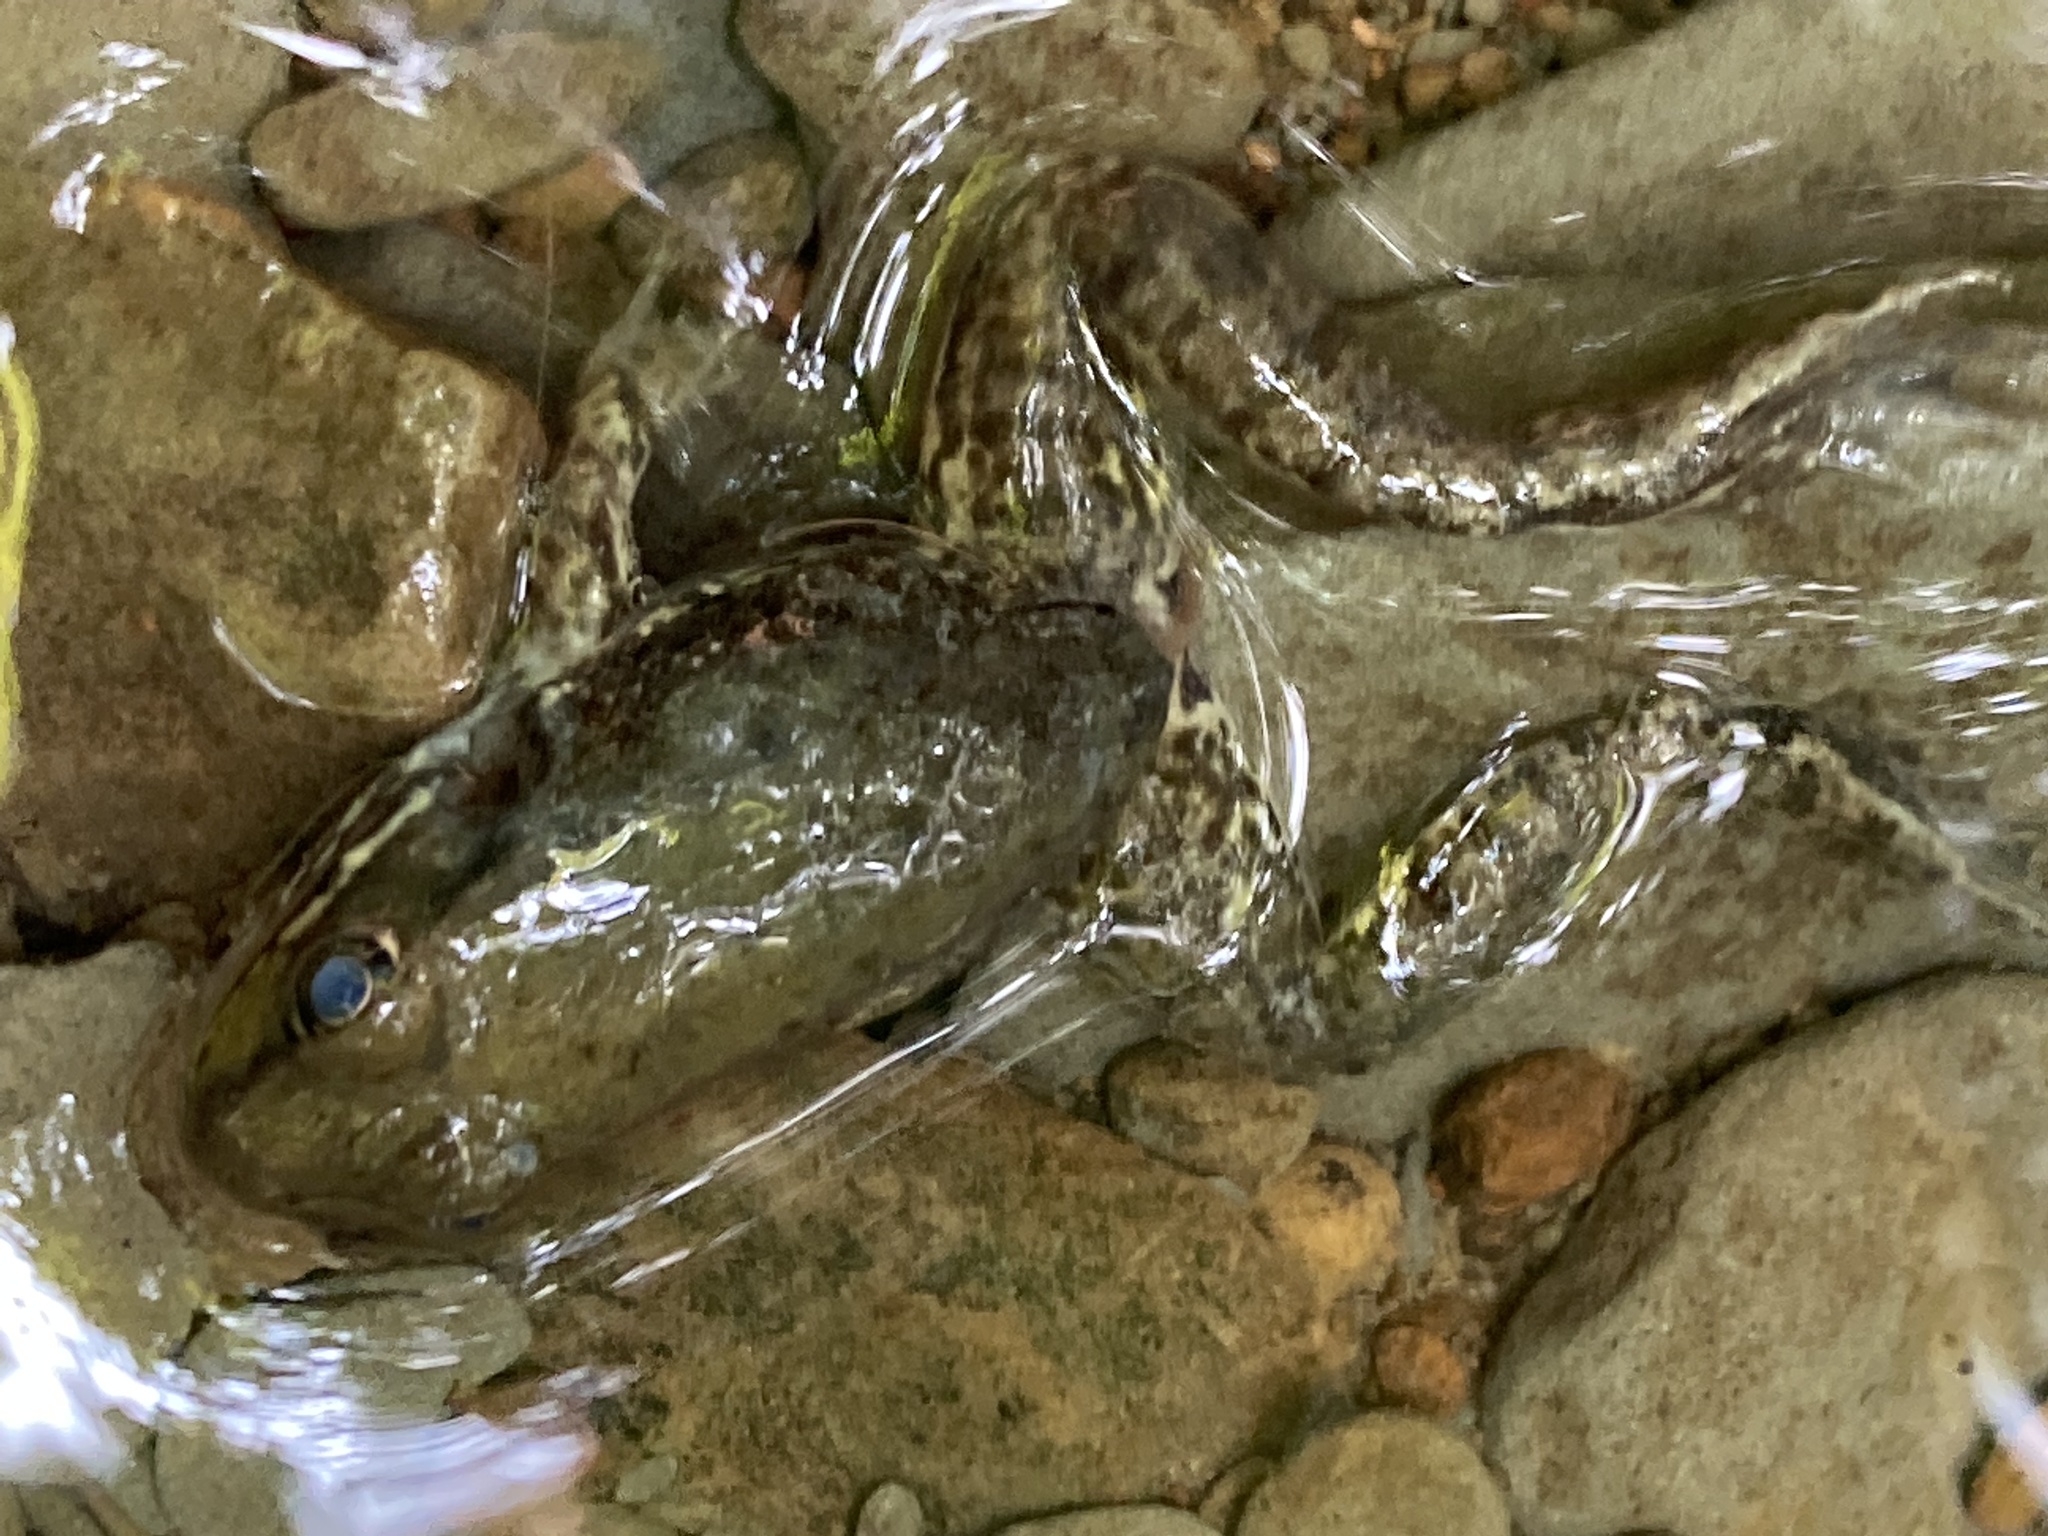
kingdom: Animalia
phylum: Chordata
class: Amphibia
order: Anura
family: Ranidae
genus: Lithobates
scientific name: Lithobates clamitans
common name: Green frog
